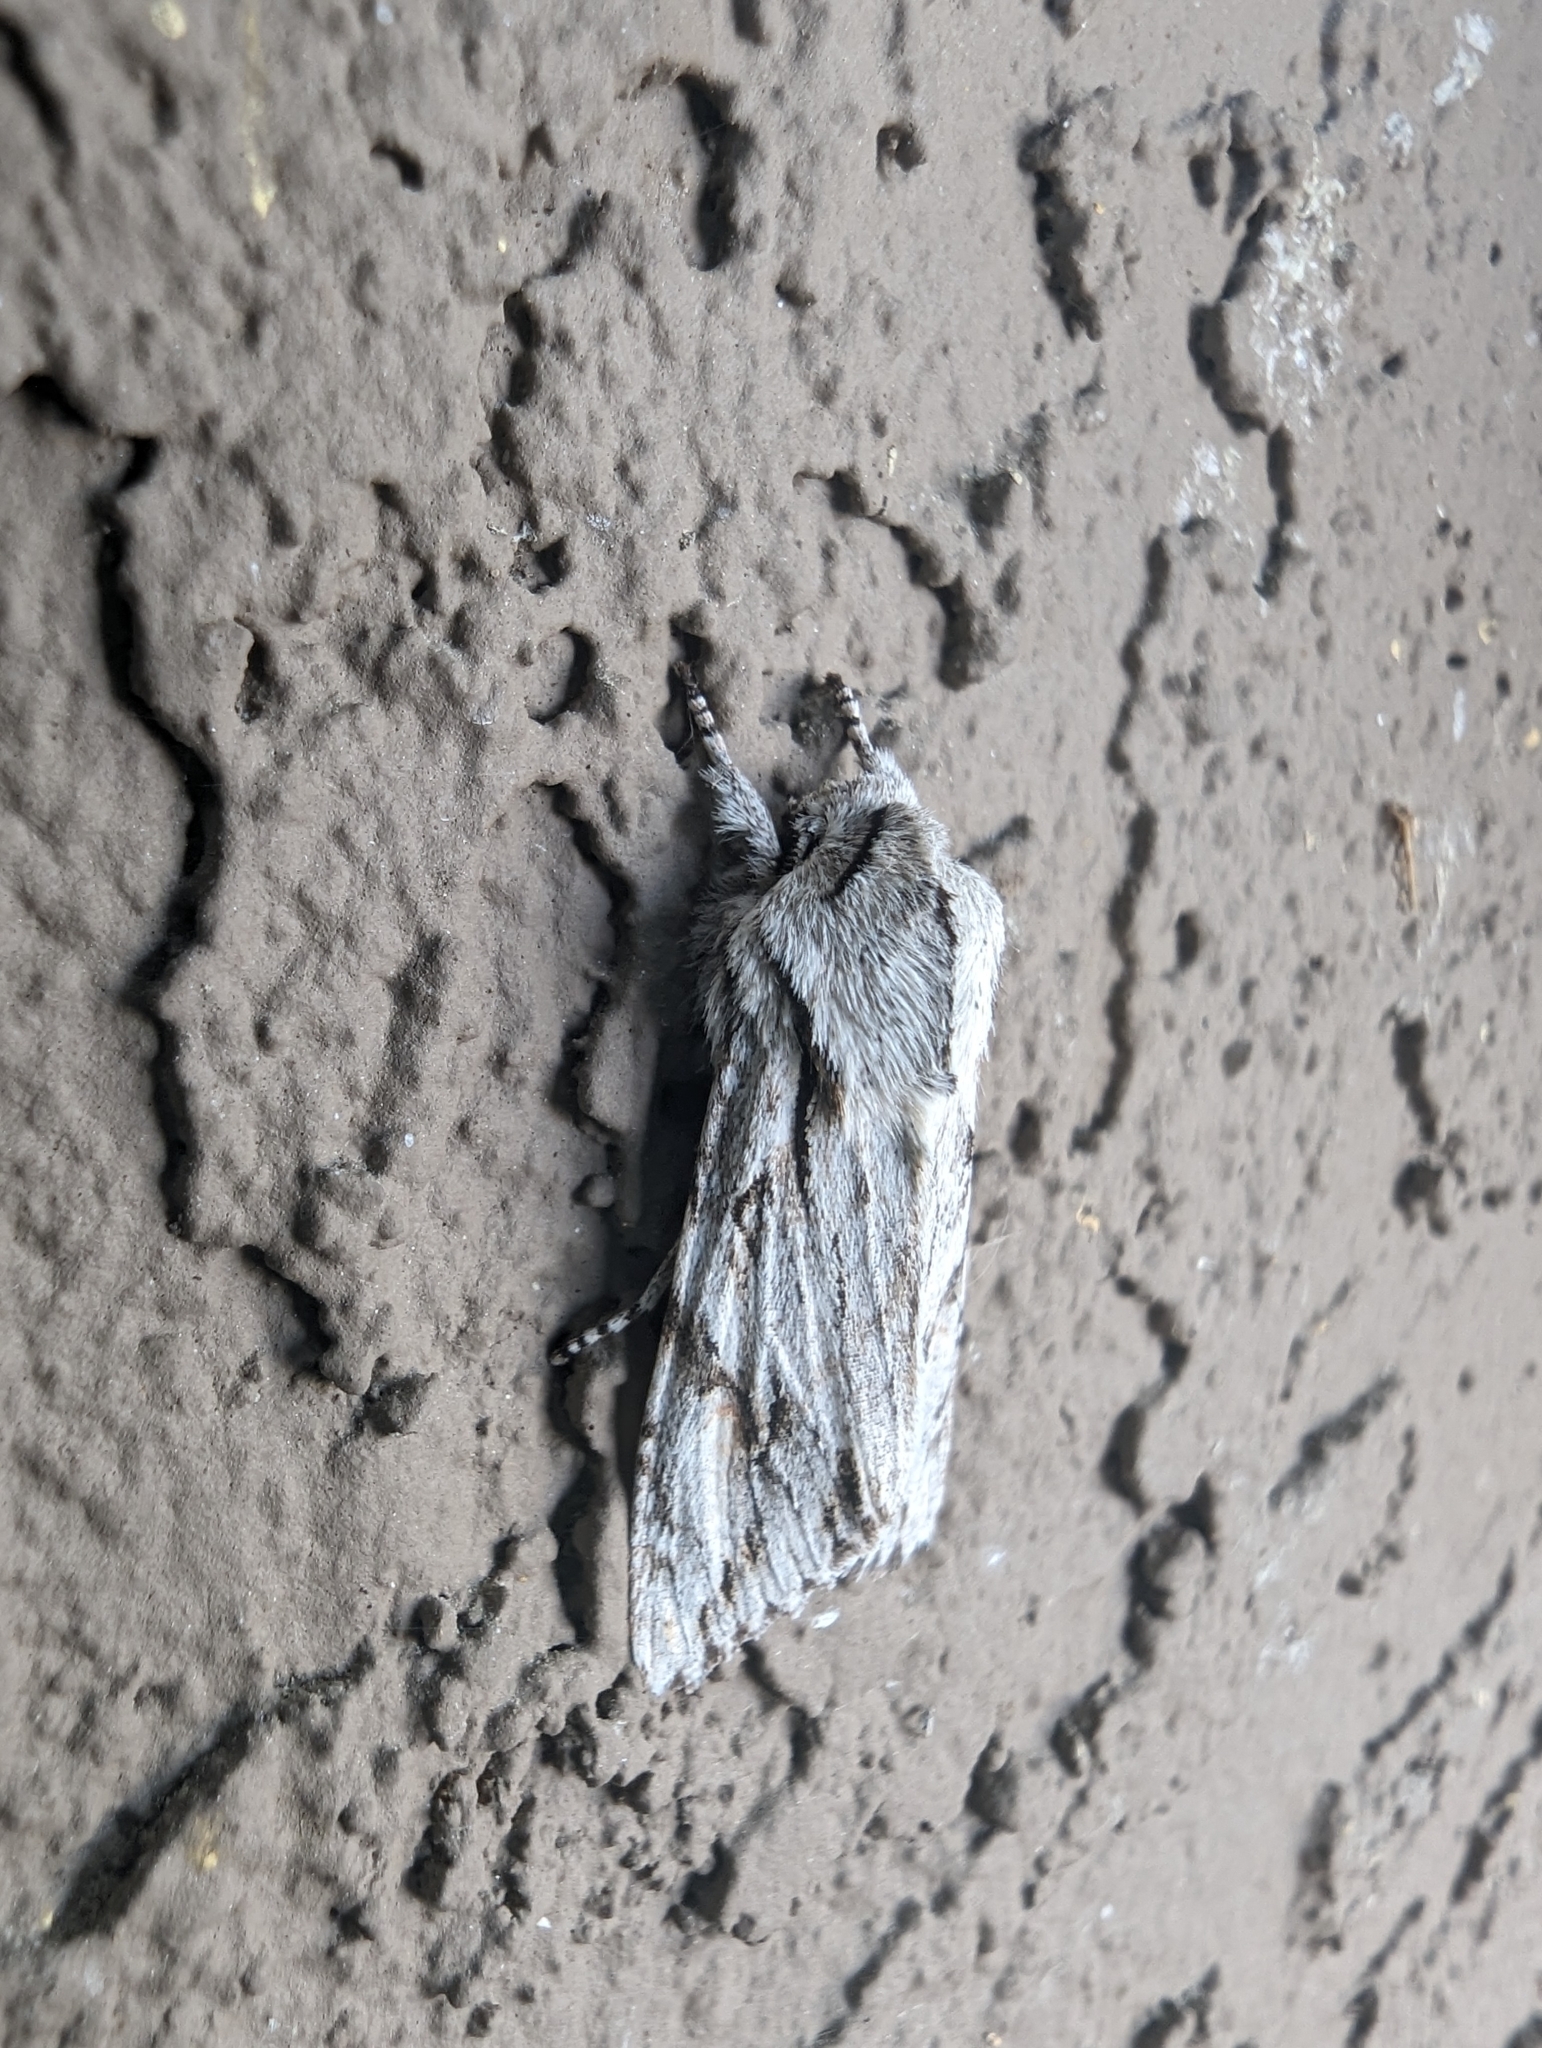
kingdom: Animalia
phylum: Arthropoda
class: Insecta
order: Lepidoptera
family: Noctuidae
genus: Egira
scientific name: Egira crucialis
